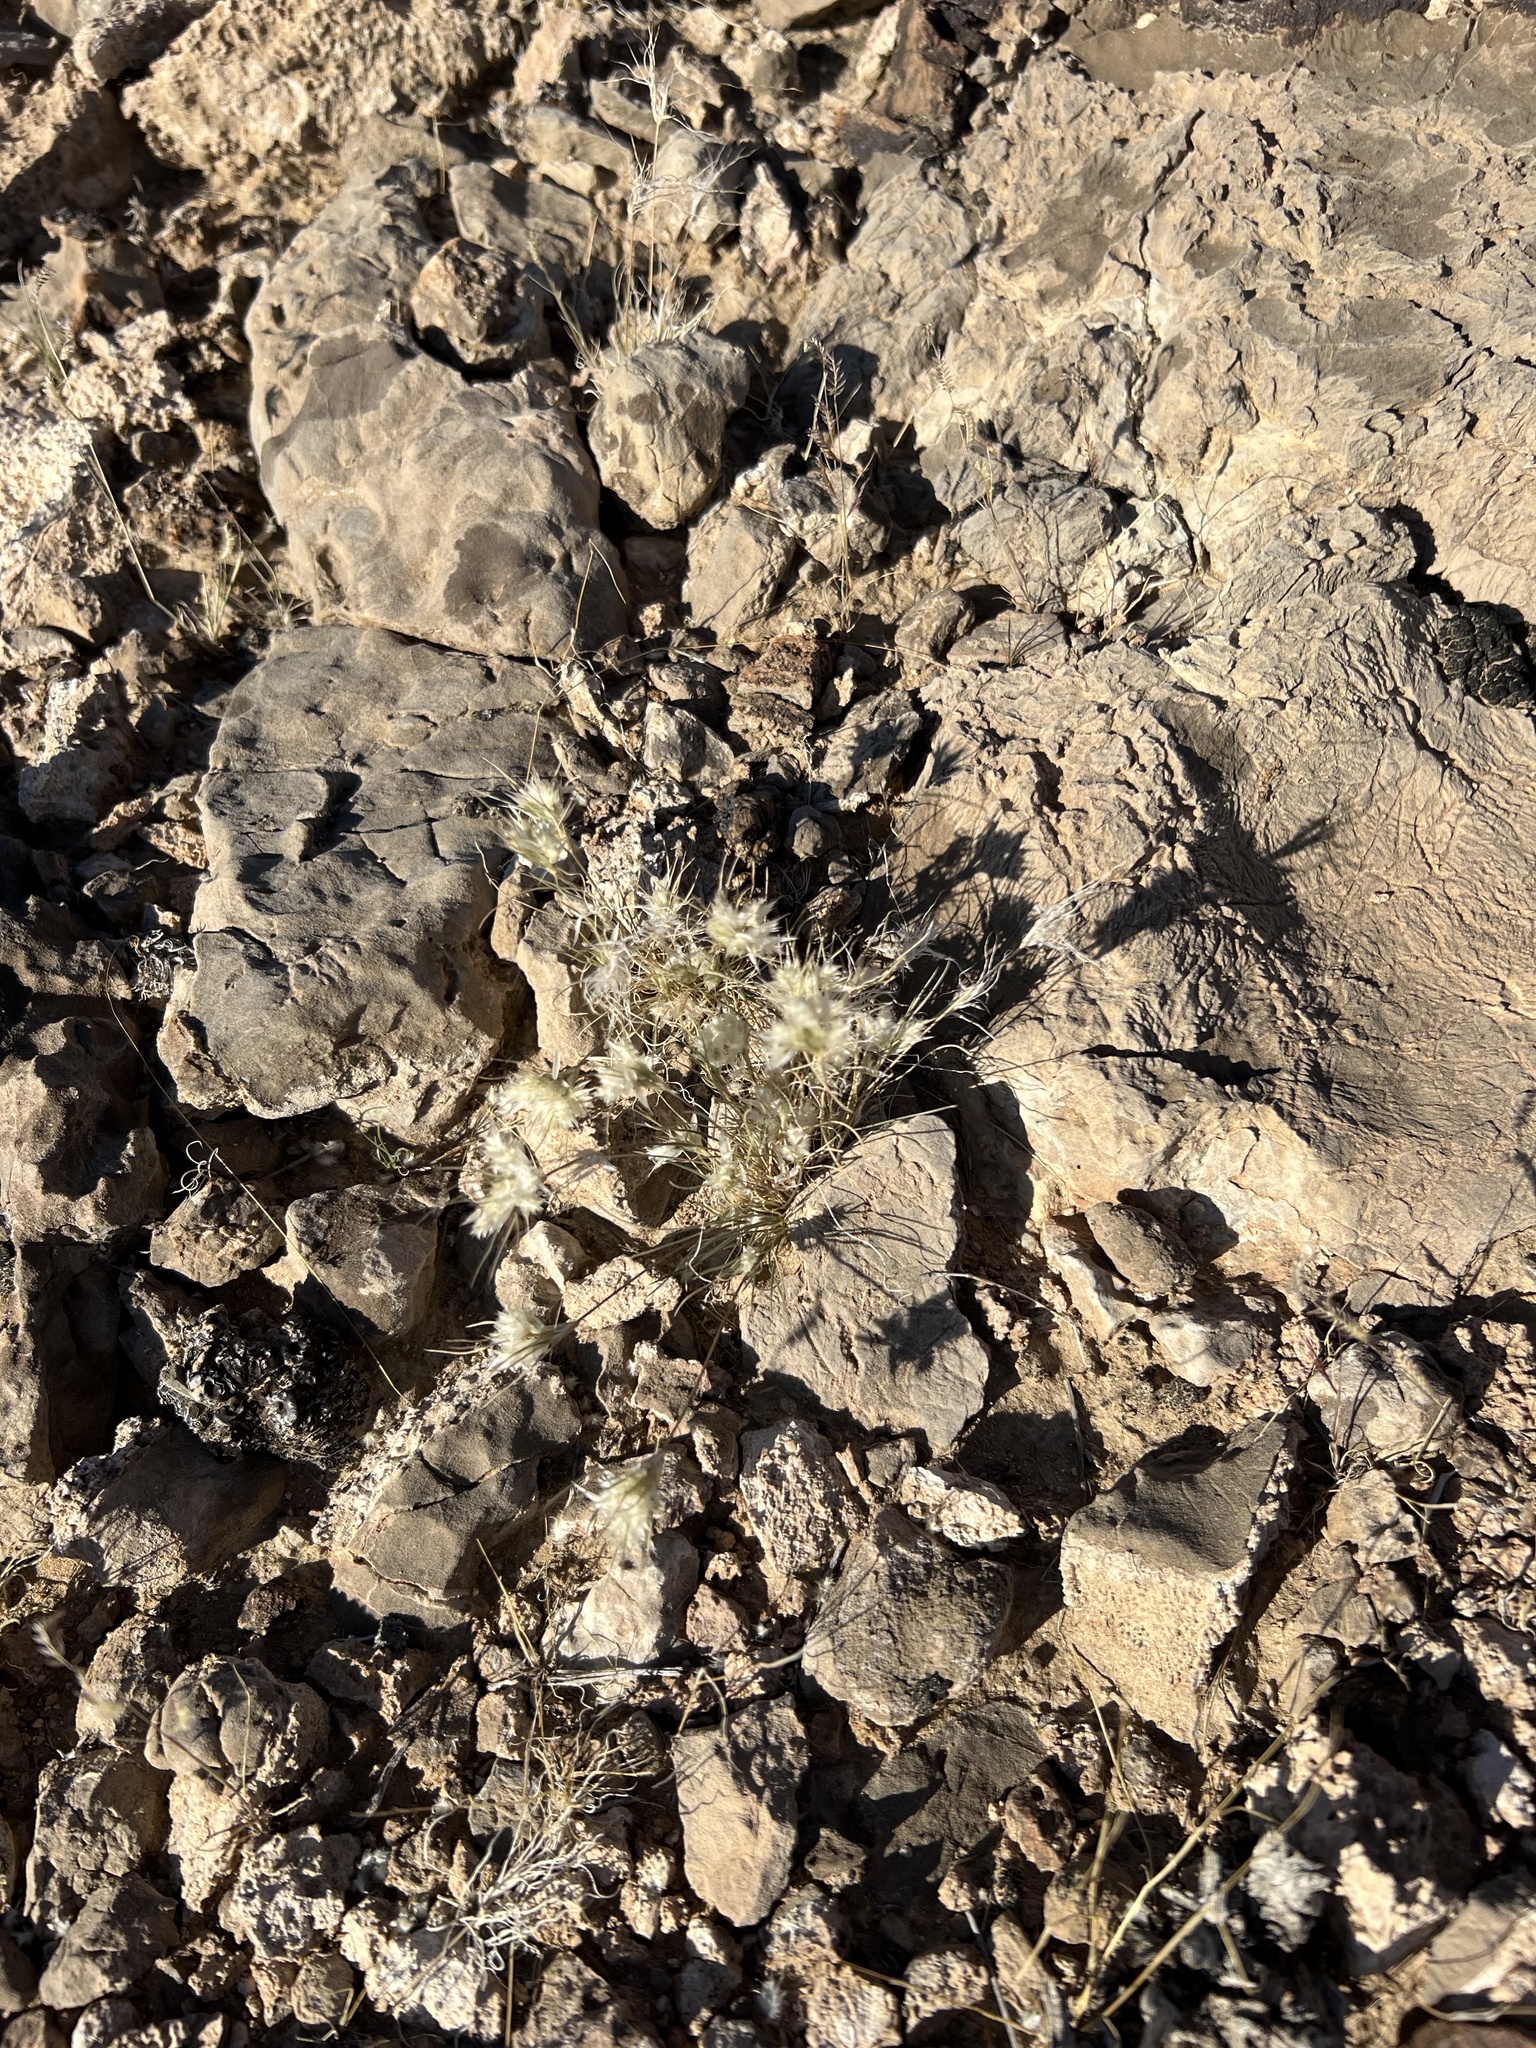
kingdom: Plantae
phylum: Tracheophyta
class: Liliopsida
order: Poales
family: Poaceae
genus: Dasyochloa
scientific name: Dasyochloa pulchella
